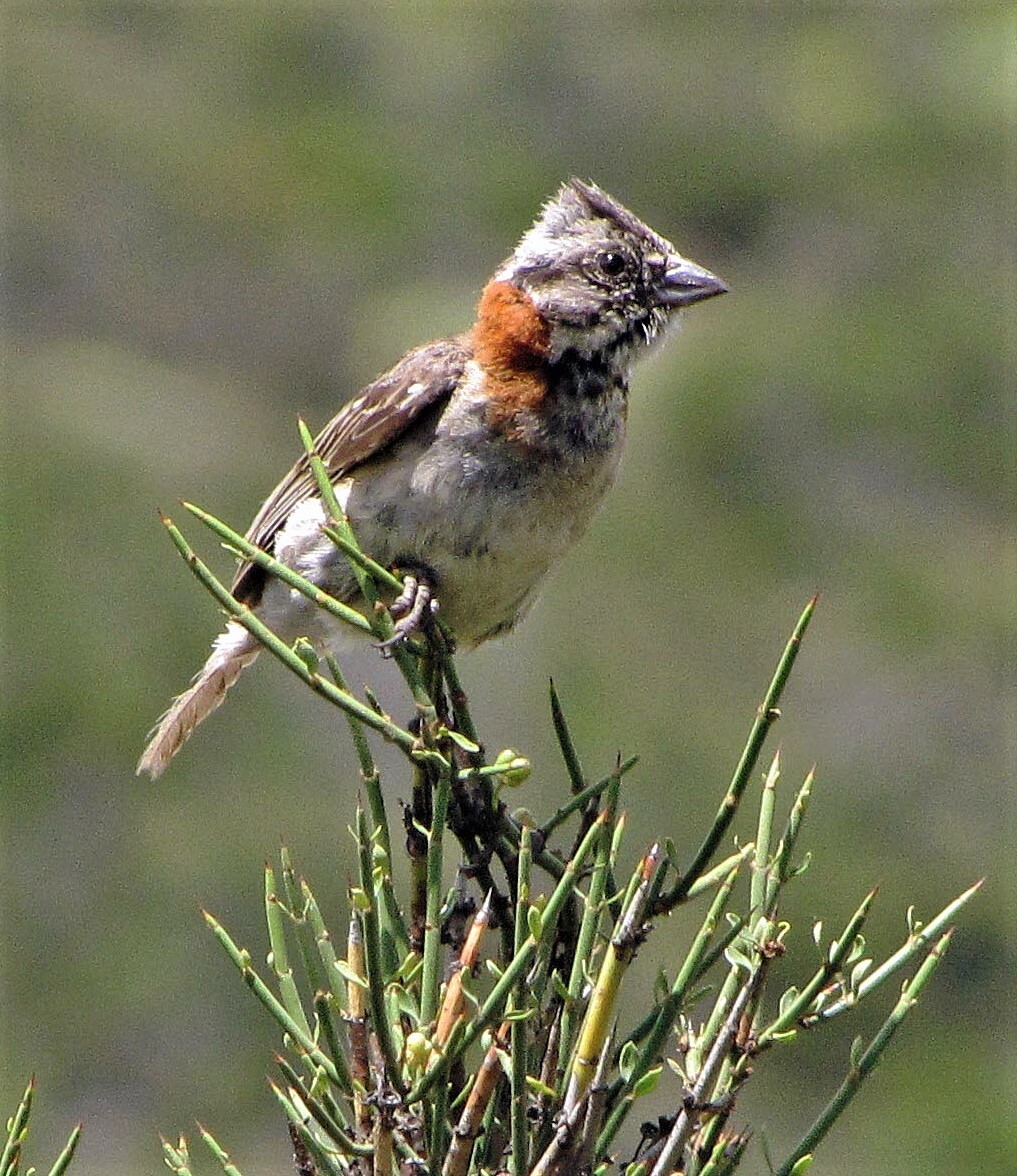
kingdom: Animalia
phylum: Chordata
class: Aves
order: Passeriformes
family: Passerellidae
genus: Zonotrichia
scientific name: Zonotrichia capensis
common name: Rufous-collared sparrow
